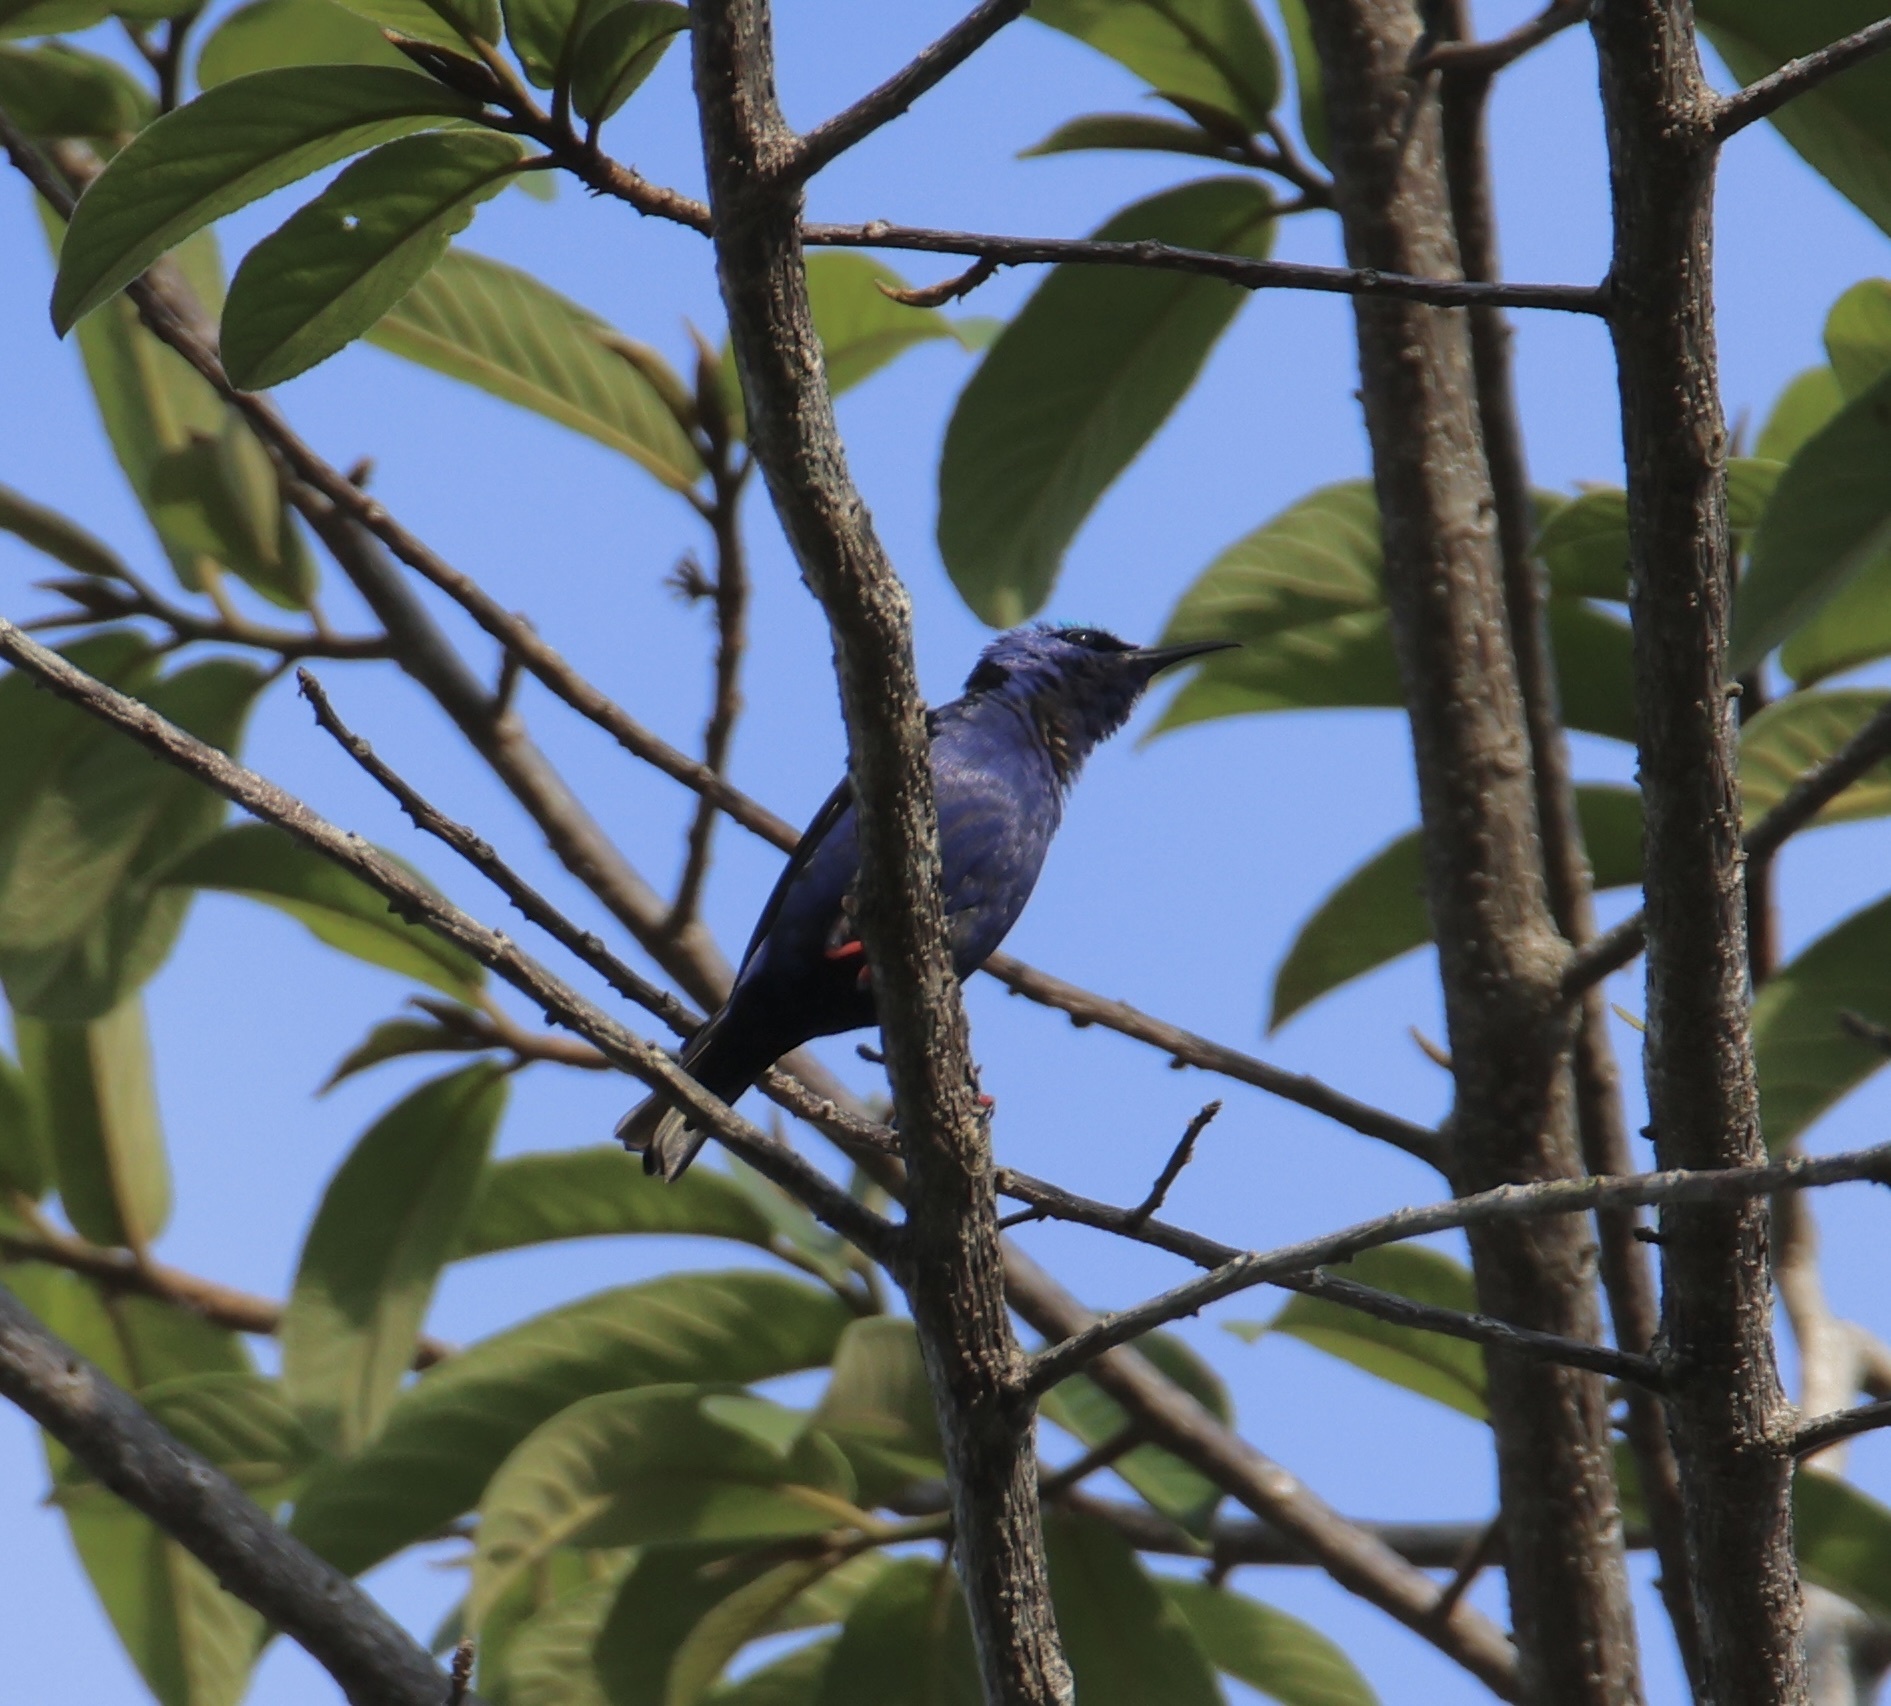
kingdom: Animalia
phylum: Chordata
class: Aves
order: Passeriformes
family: Thraupidae
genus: Cyanerpes
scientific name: Cyanerpes cyaneus
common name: Red-legged honeycreeper
